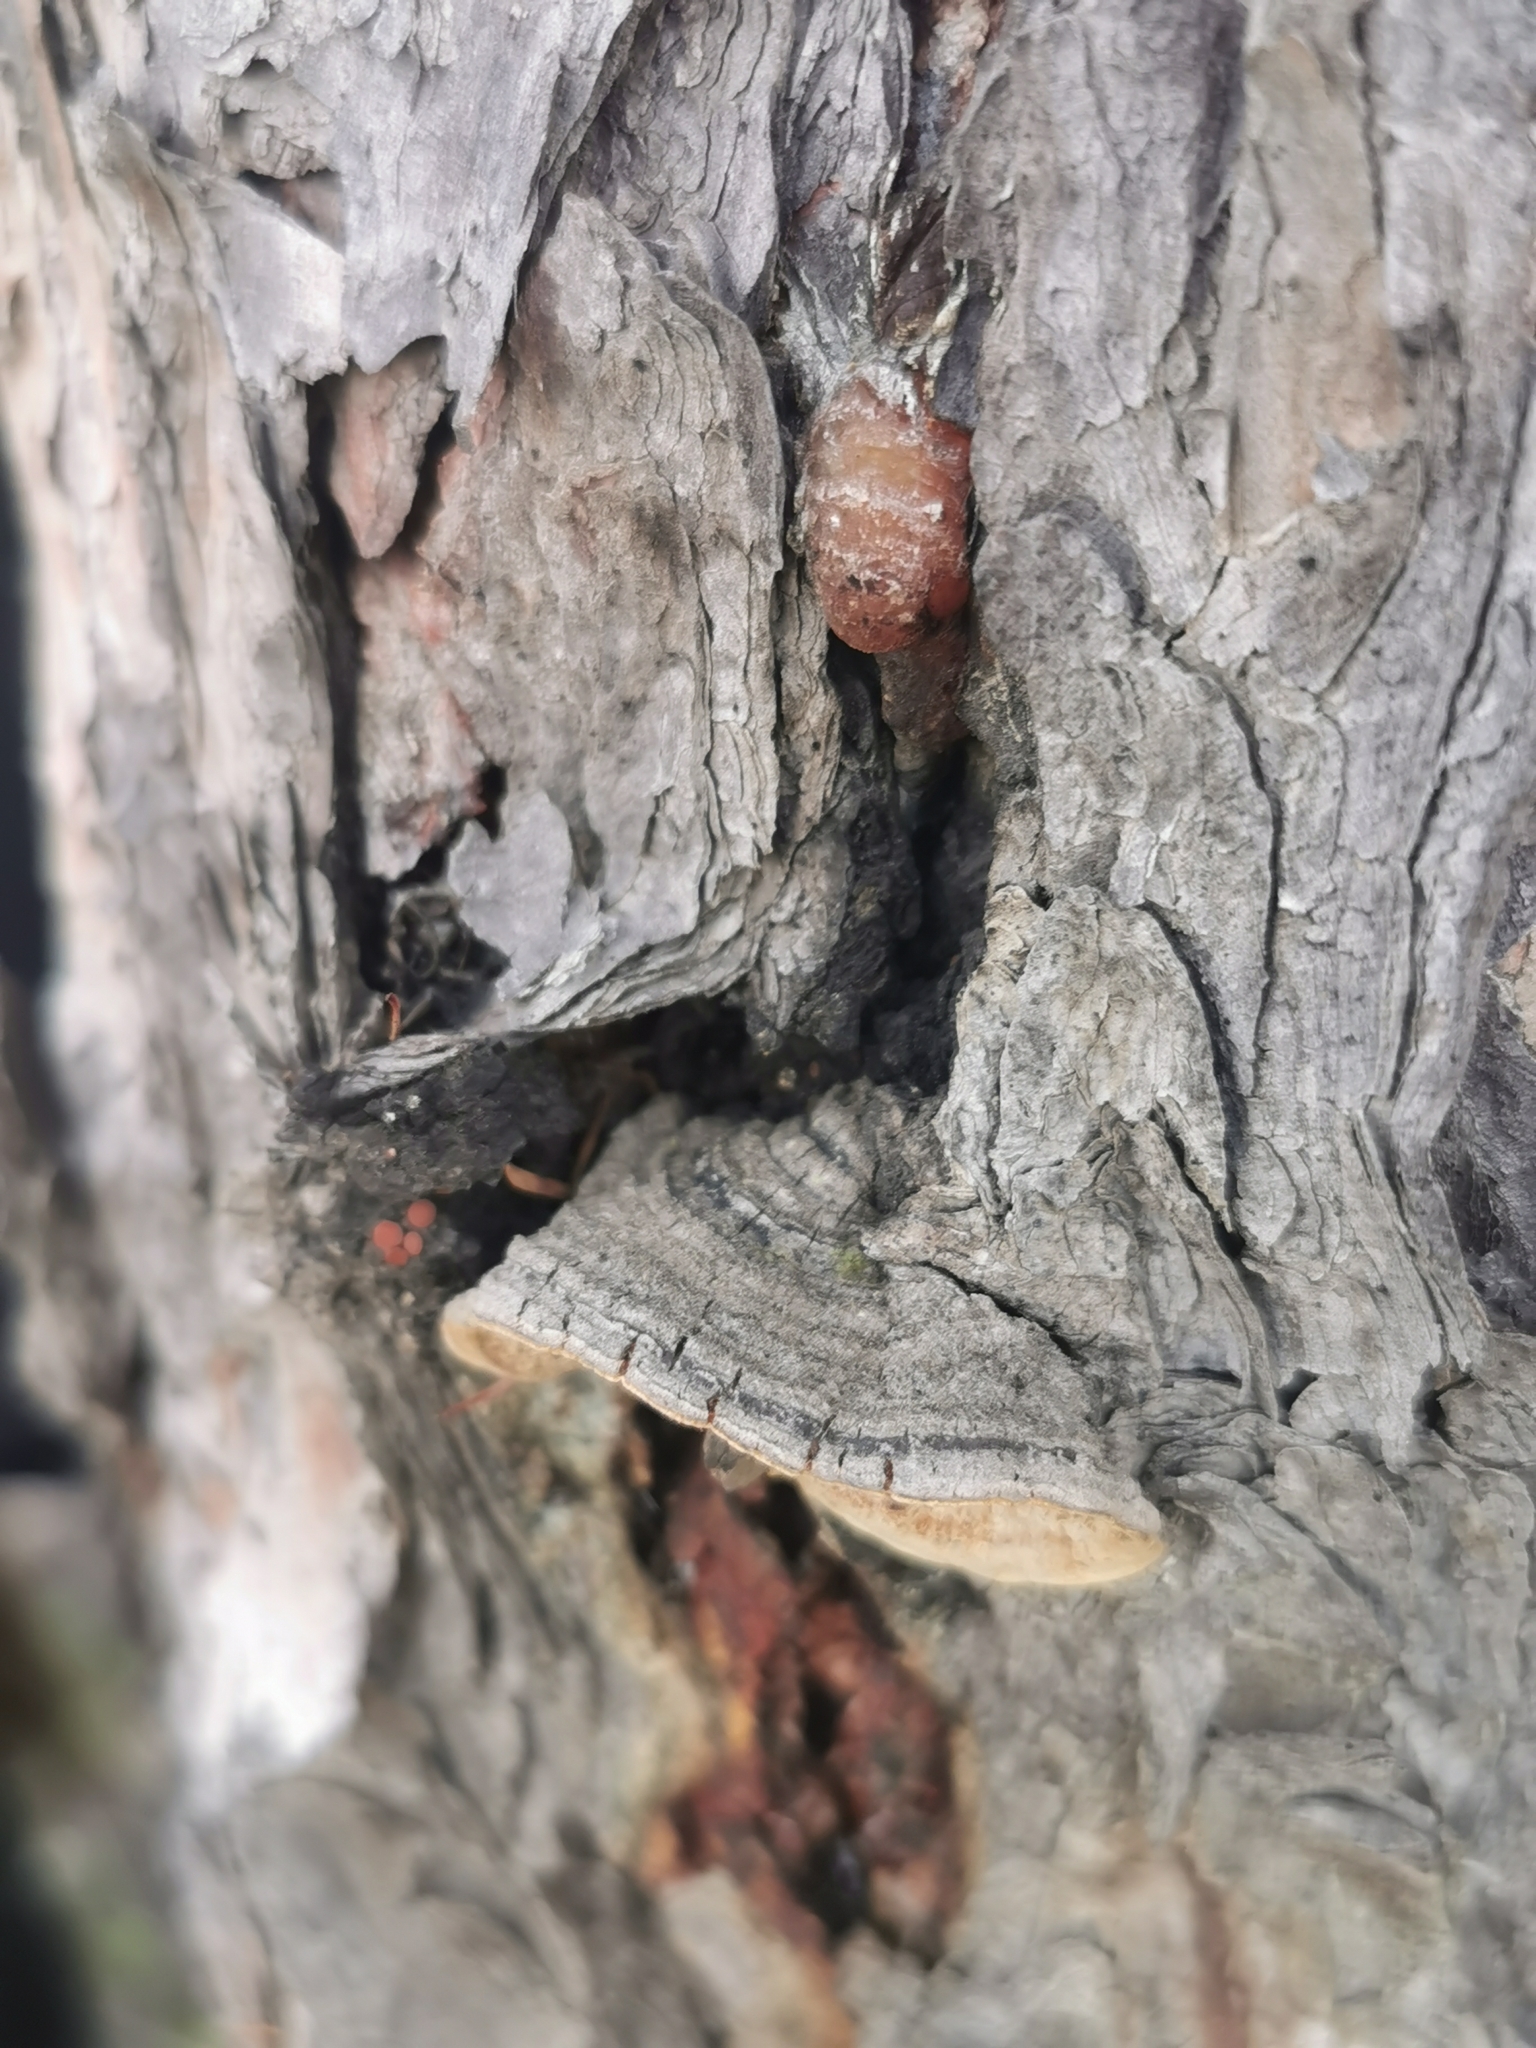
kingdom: Fungi
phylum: Basidiomycota
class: Agaricomycetes
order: Hymenochaetales
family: Hymenochaetaceae
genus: Porodaedalea
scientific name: Porodaedalea pini
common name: Pine bracket
